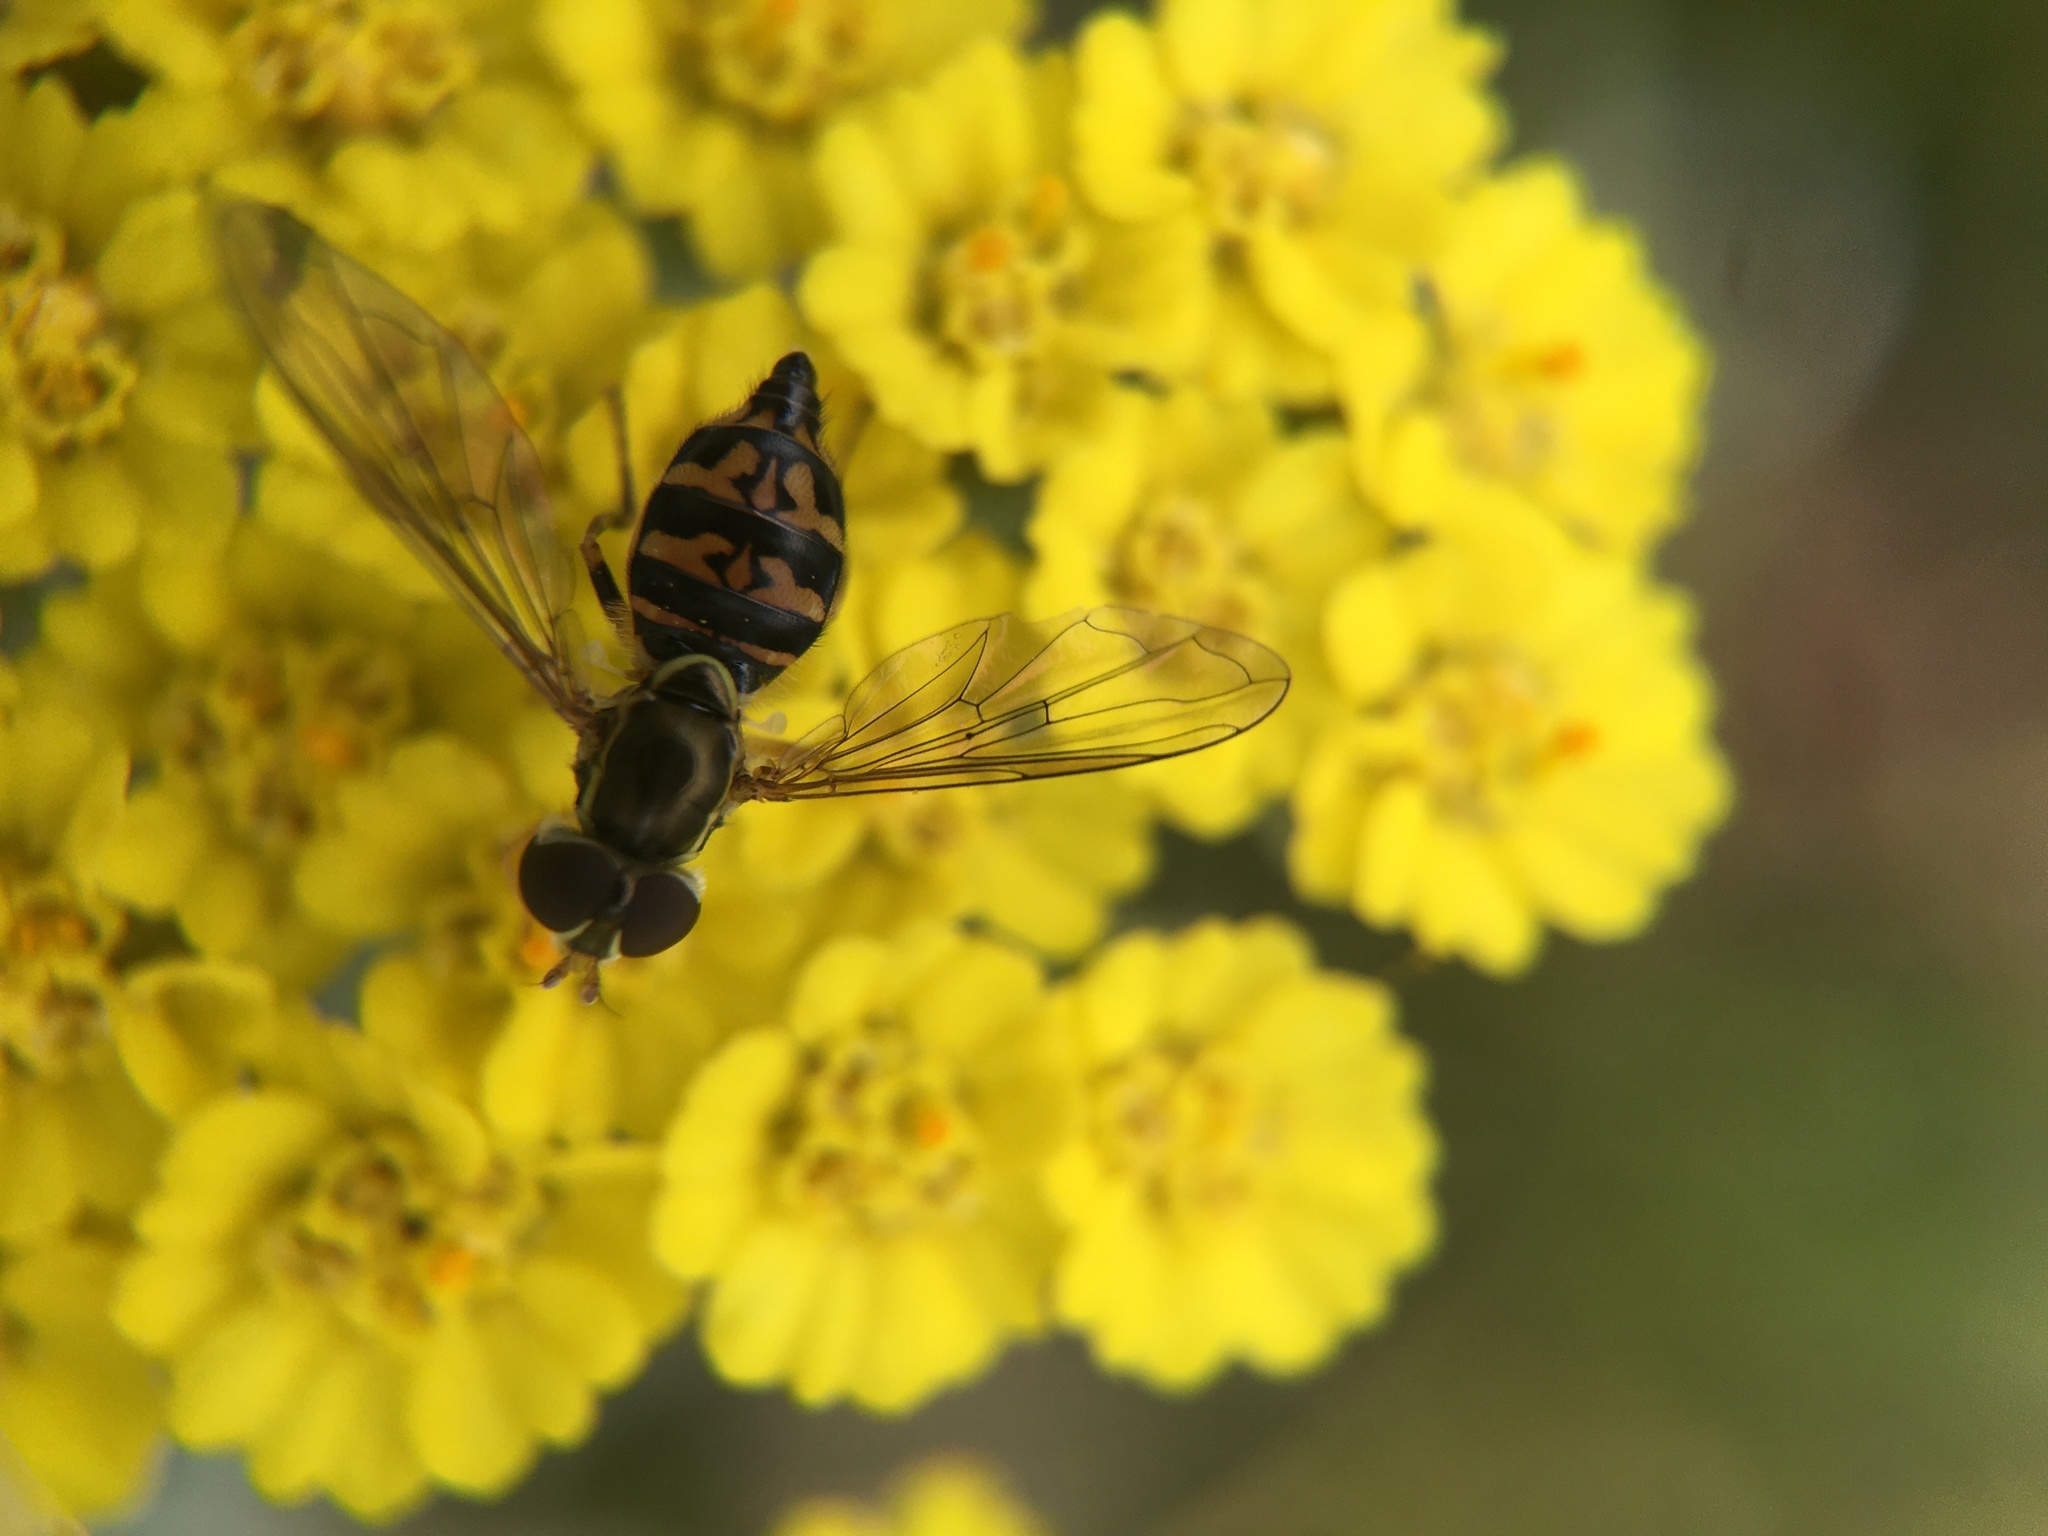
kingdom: Animalia
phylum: Arthropoda
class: Insecta
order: Diptera
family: Syrphidae
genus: Toxomerus
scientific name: Toxomerus occidentalis
